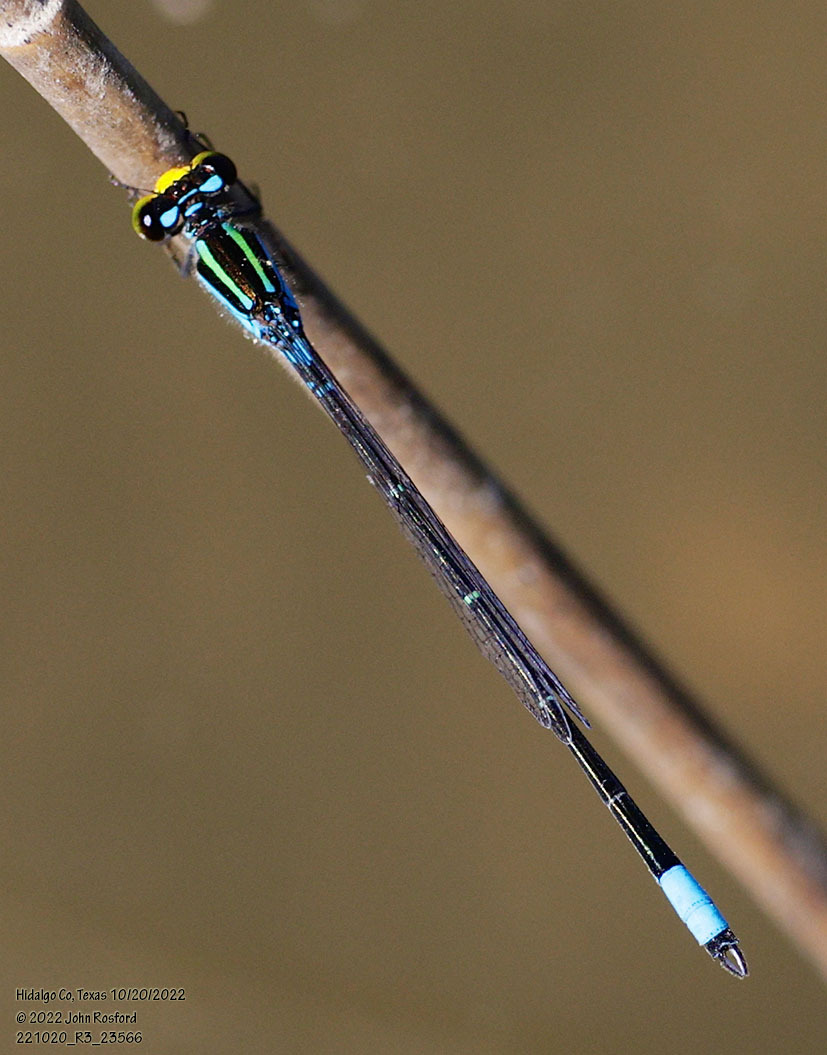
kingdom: Animalia
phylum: Arthropoda
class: Insecta
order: Odonata
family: Coenagrionidae
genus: Neoerythromma
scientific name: Neoerythromma cultellatum
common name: Caribbean yellowface
